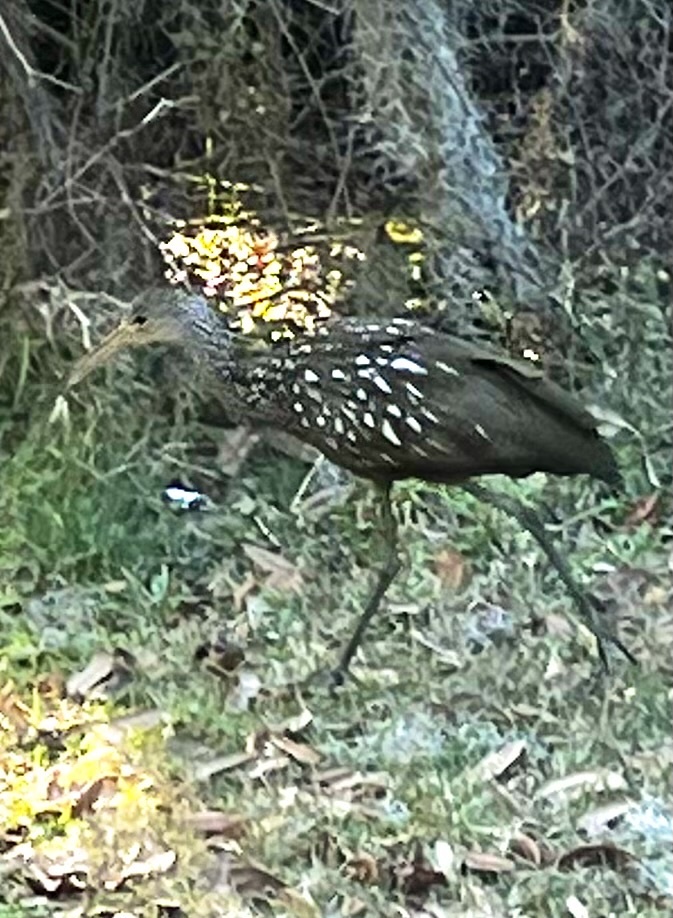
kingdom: Animalia
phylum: Chordata
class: Aves
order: Gruiformes
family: Aramidae
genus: Aramus
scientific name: Aramus guarauna
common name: Limpkin
